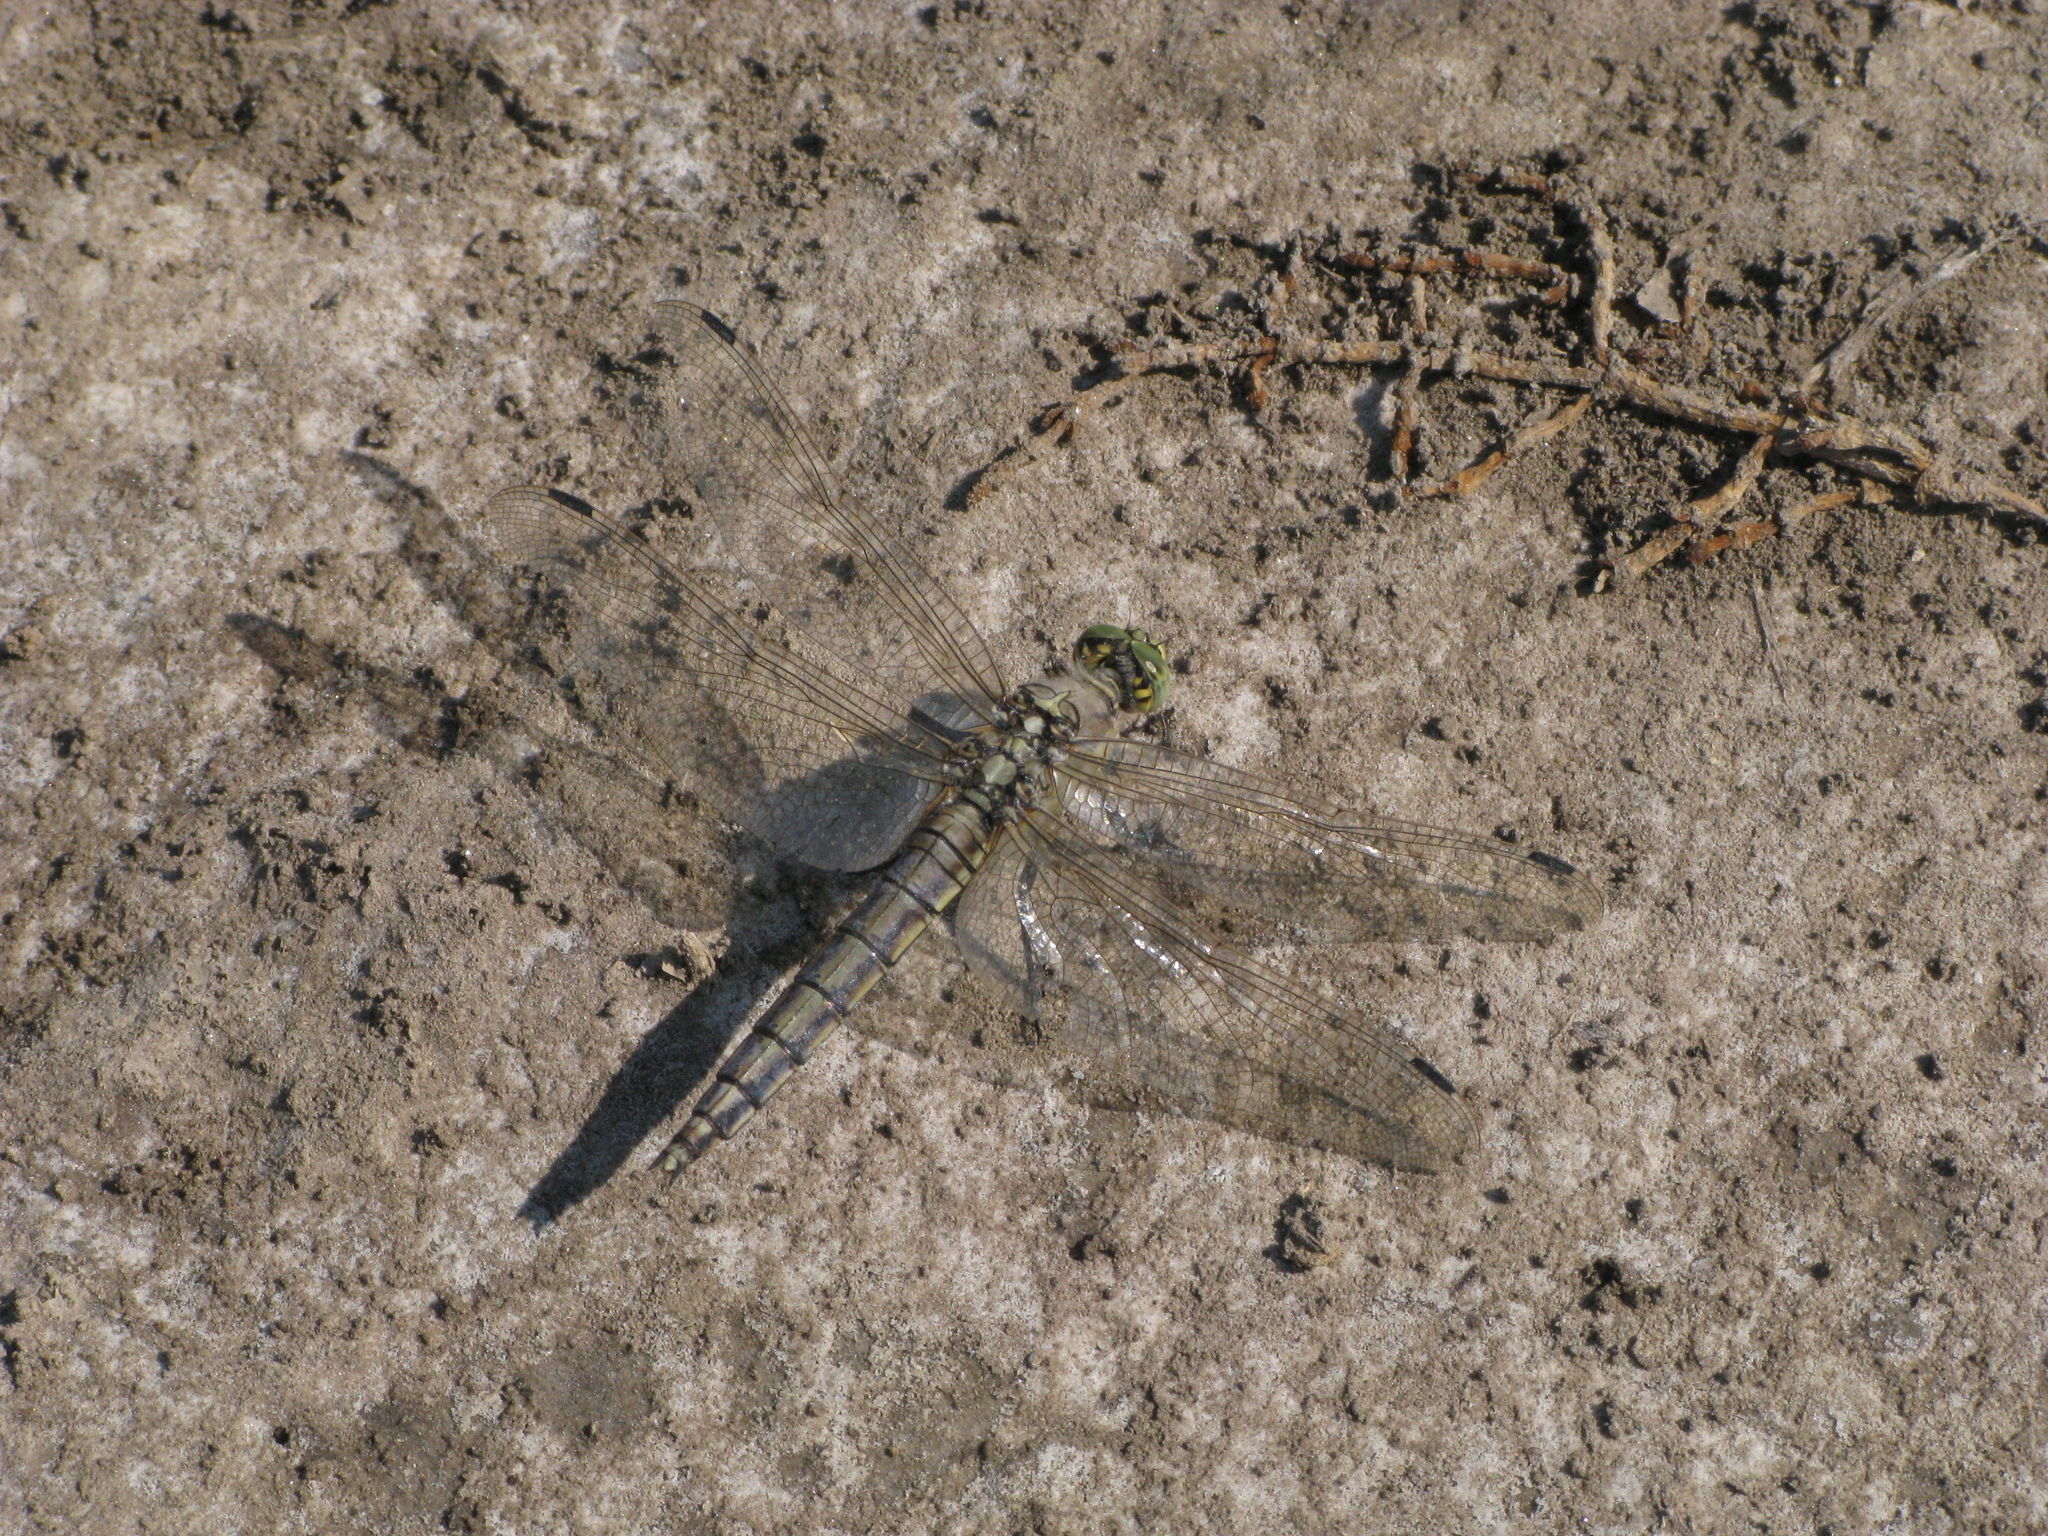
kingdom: Animalia
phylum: Arthropoda
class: Insecta
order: Odonata
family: Libellulidae
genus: Orthetrum
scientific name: Orthetrum cancellatum
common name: Black-tailed skimmer
